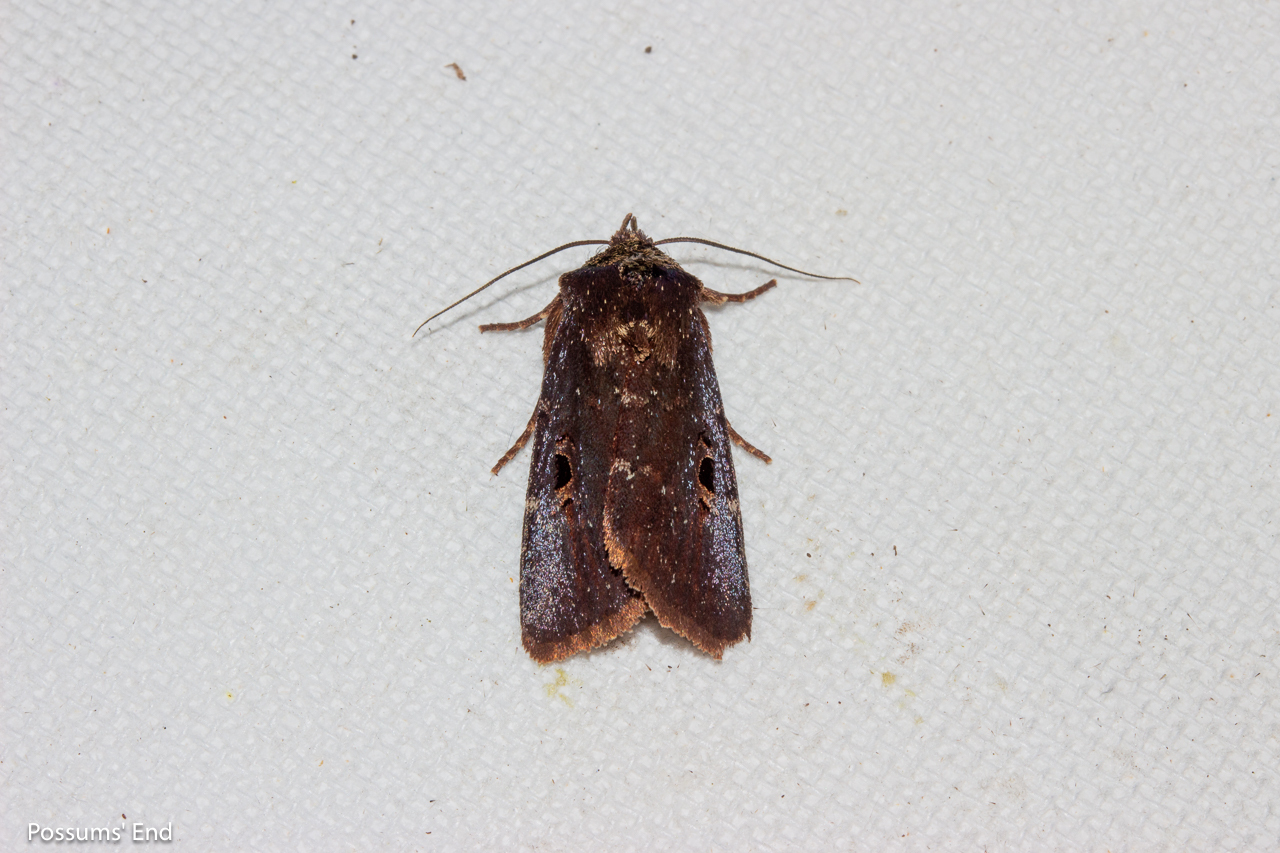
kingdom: Animalia
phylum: Arthropoda
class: Insecta
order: Lepidoptera
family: Noctuidae
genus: Austramathes
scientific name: Austramathes purpurea
